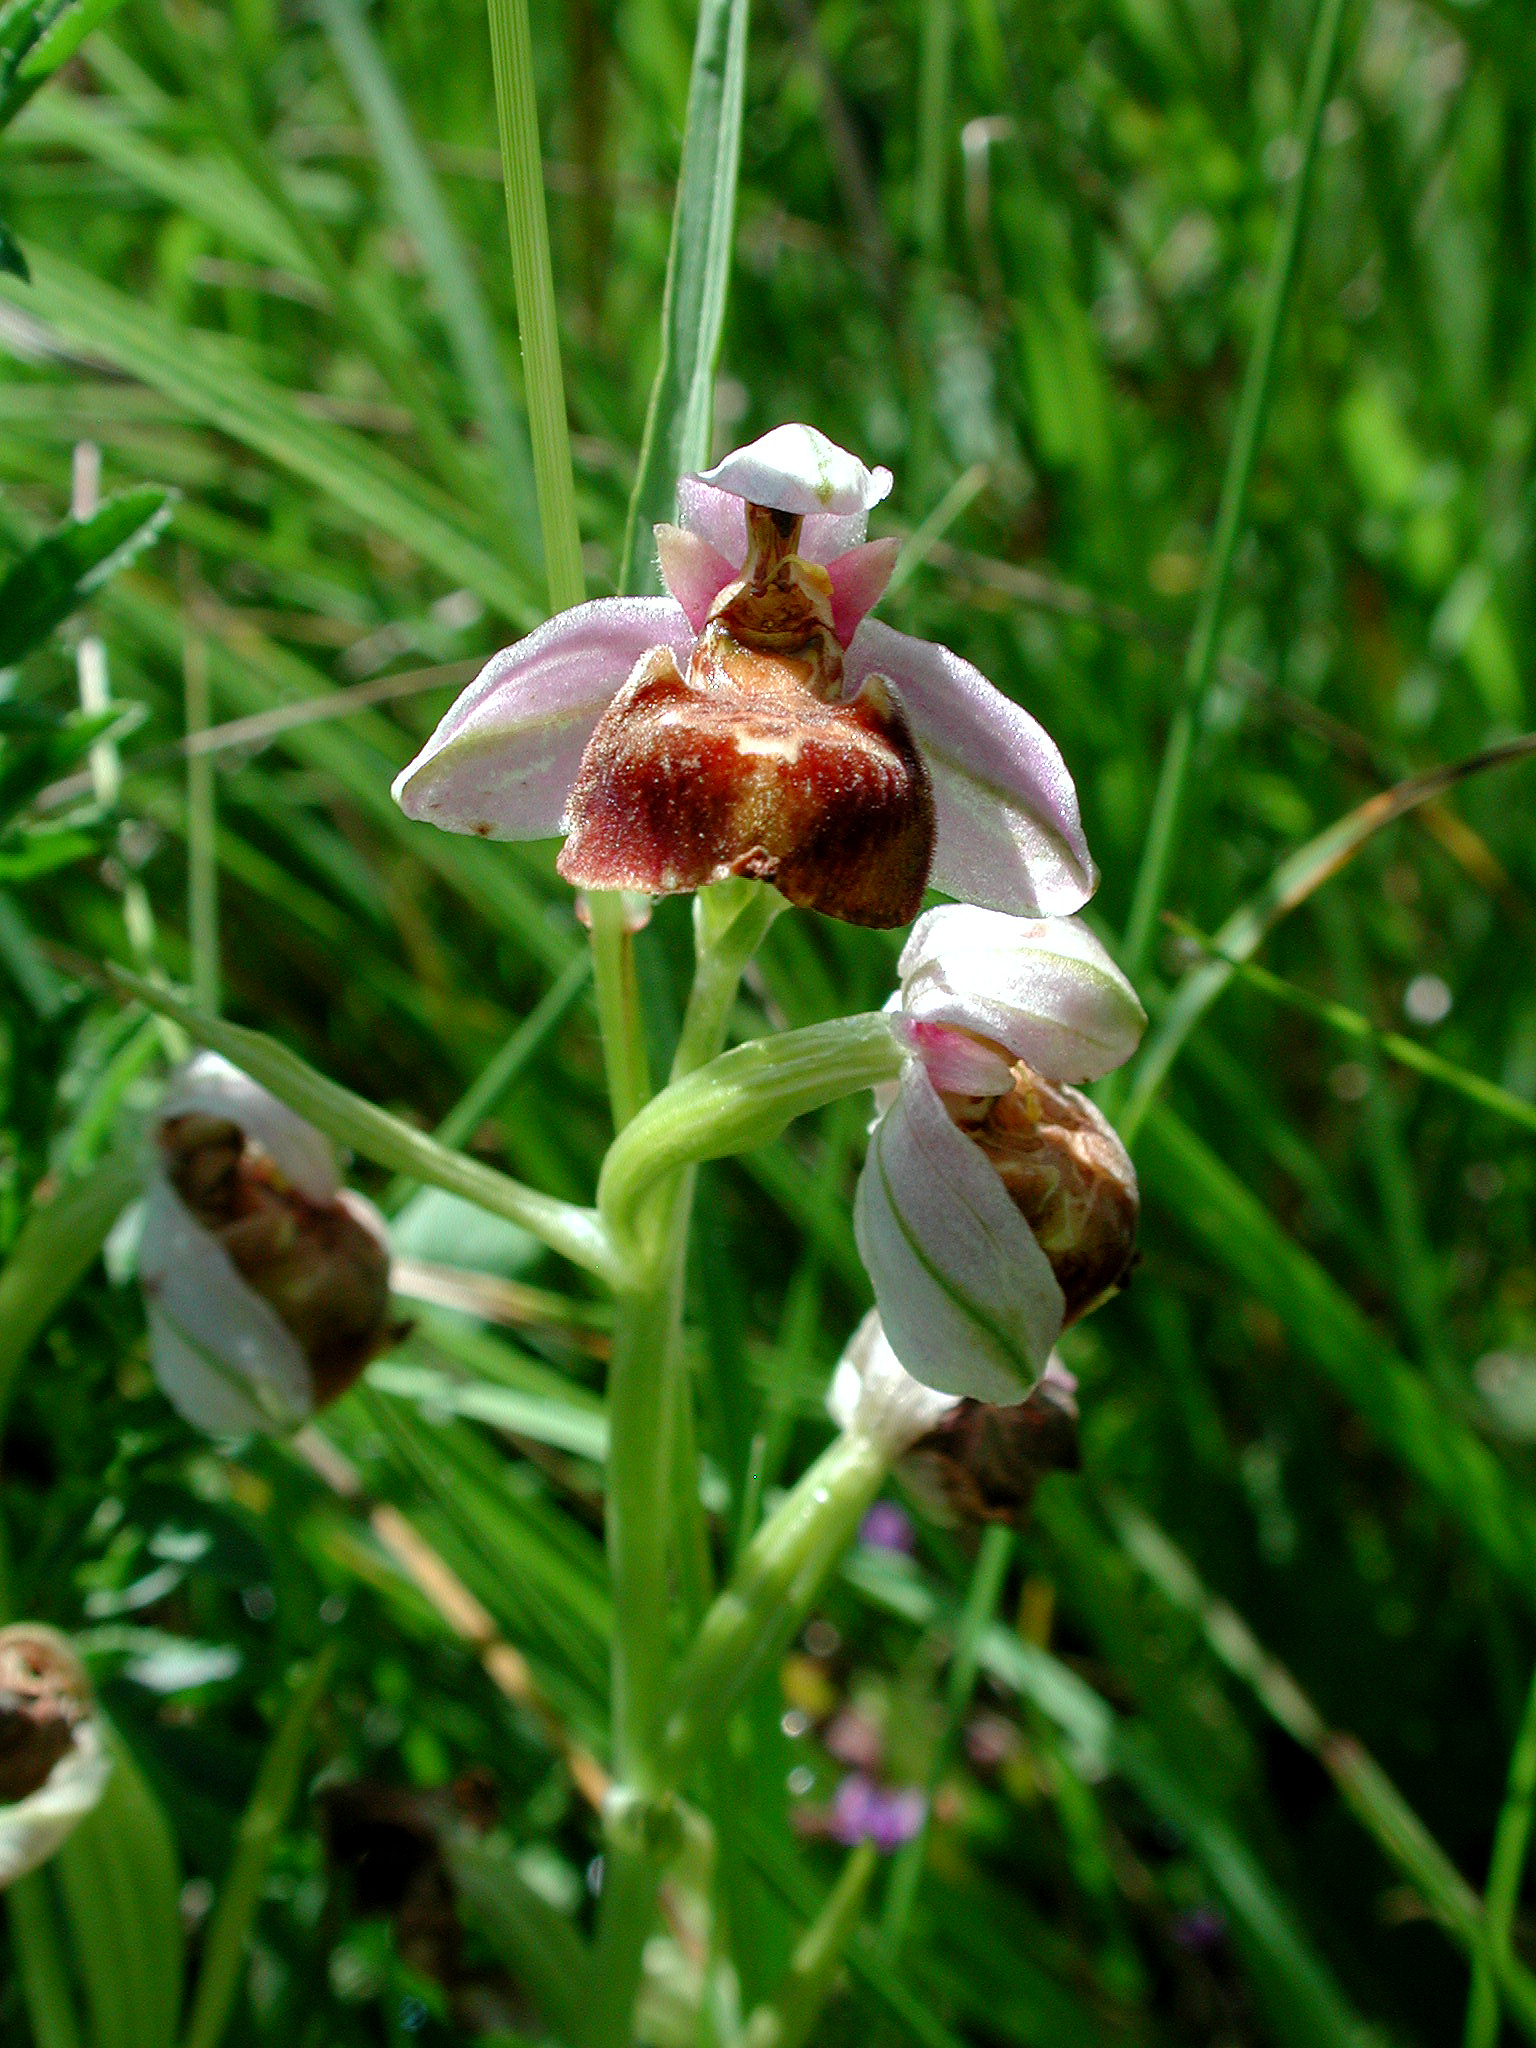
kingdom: Plantae
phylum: Tracheophyta
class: Liliopsida
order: Asparagales
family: Orchidaceae
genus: Ophrys
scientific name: Ophrys holosericea
